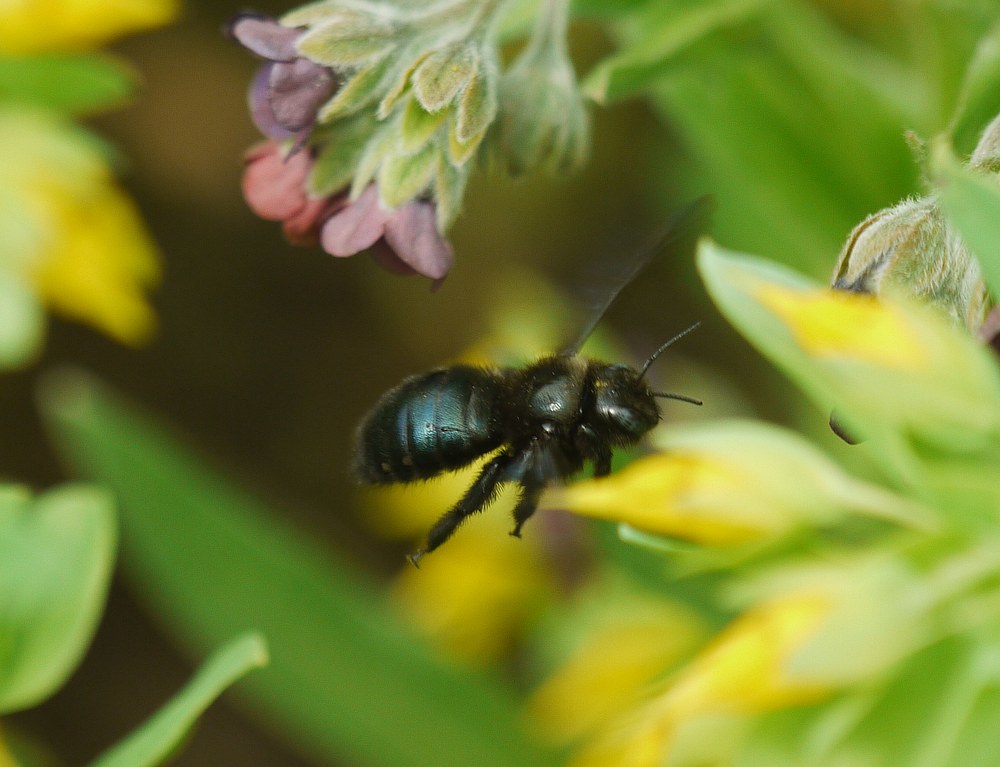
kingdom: Animalia
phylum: Arthropoda
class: Insecta
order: Hymenoptera
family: Apidae
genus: Xylocopa
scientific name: Xylocopa iris
